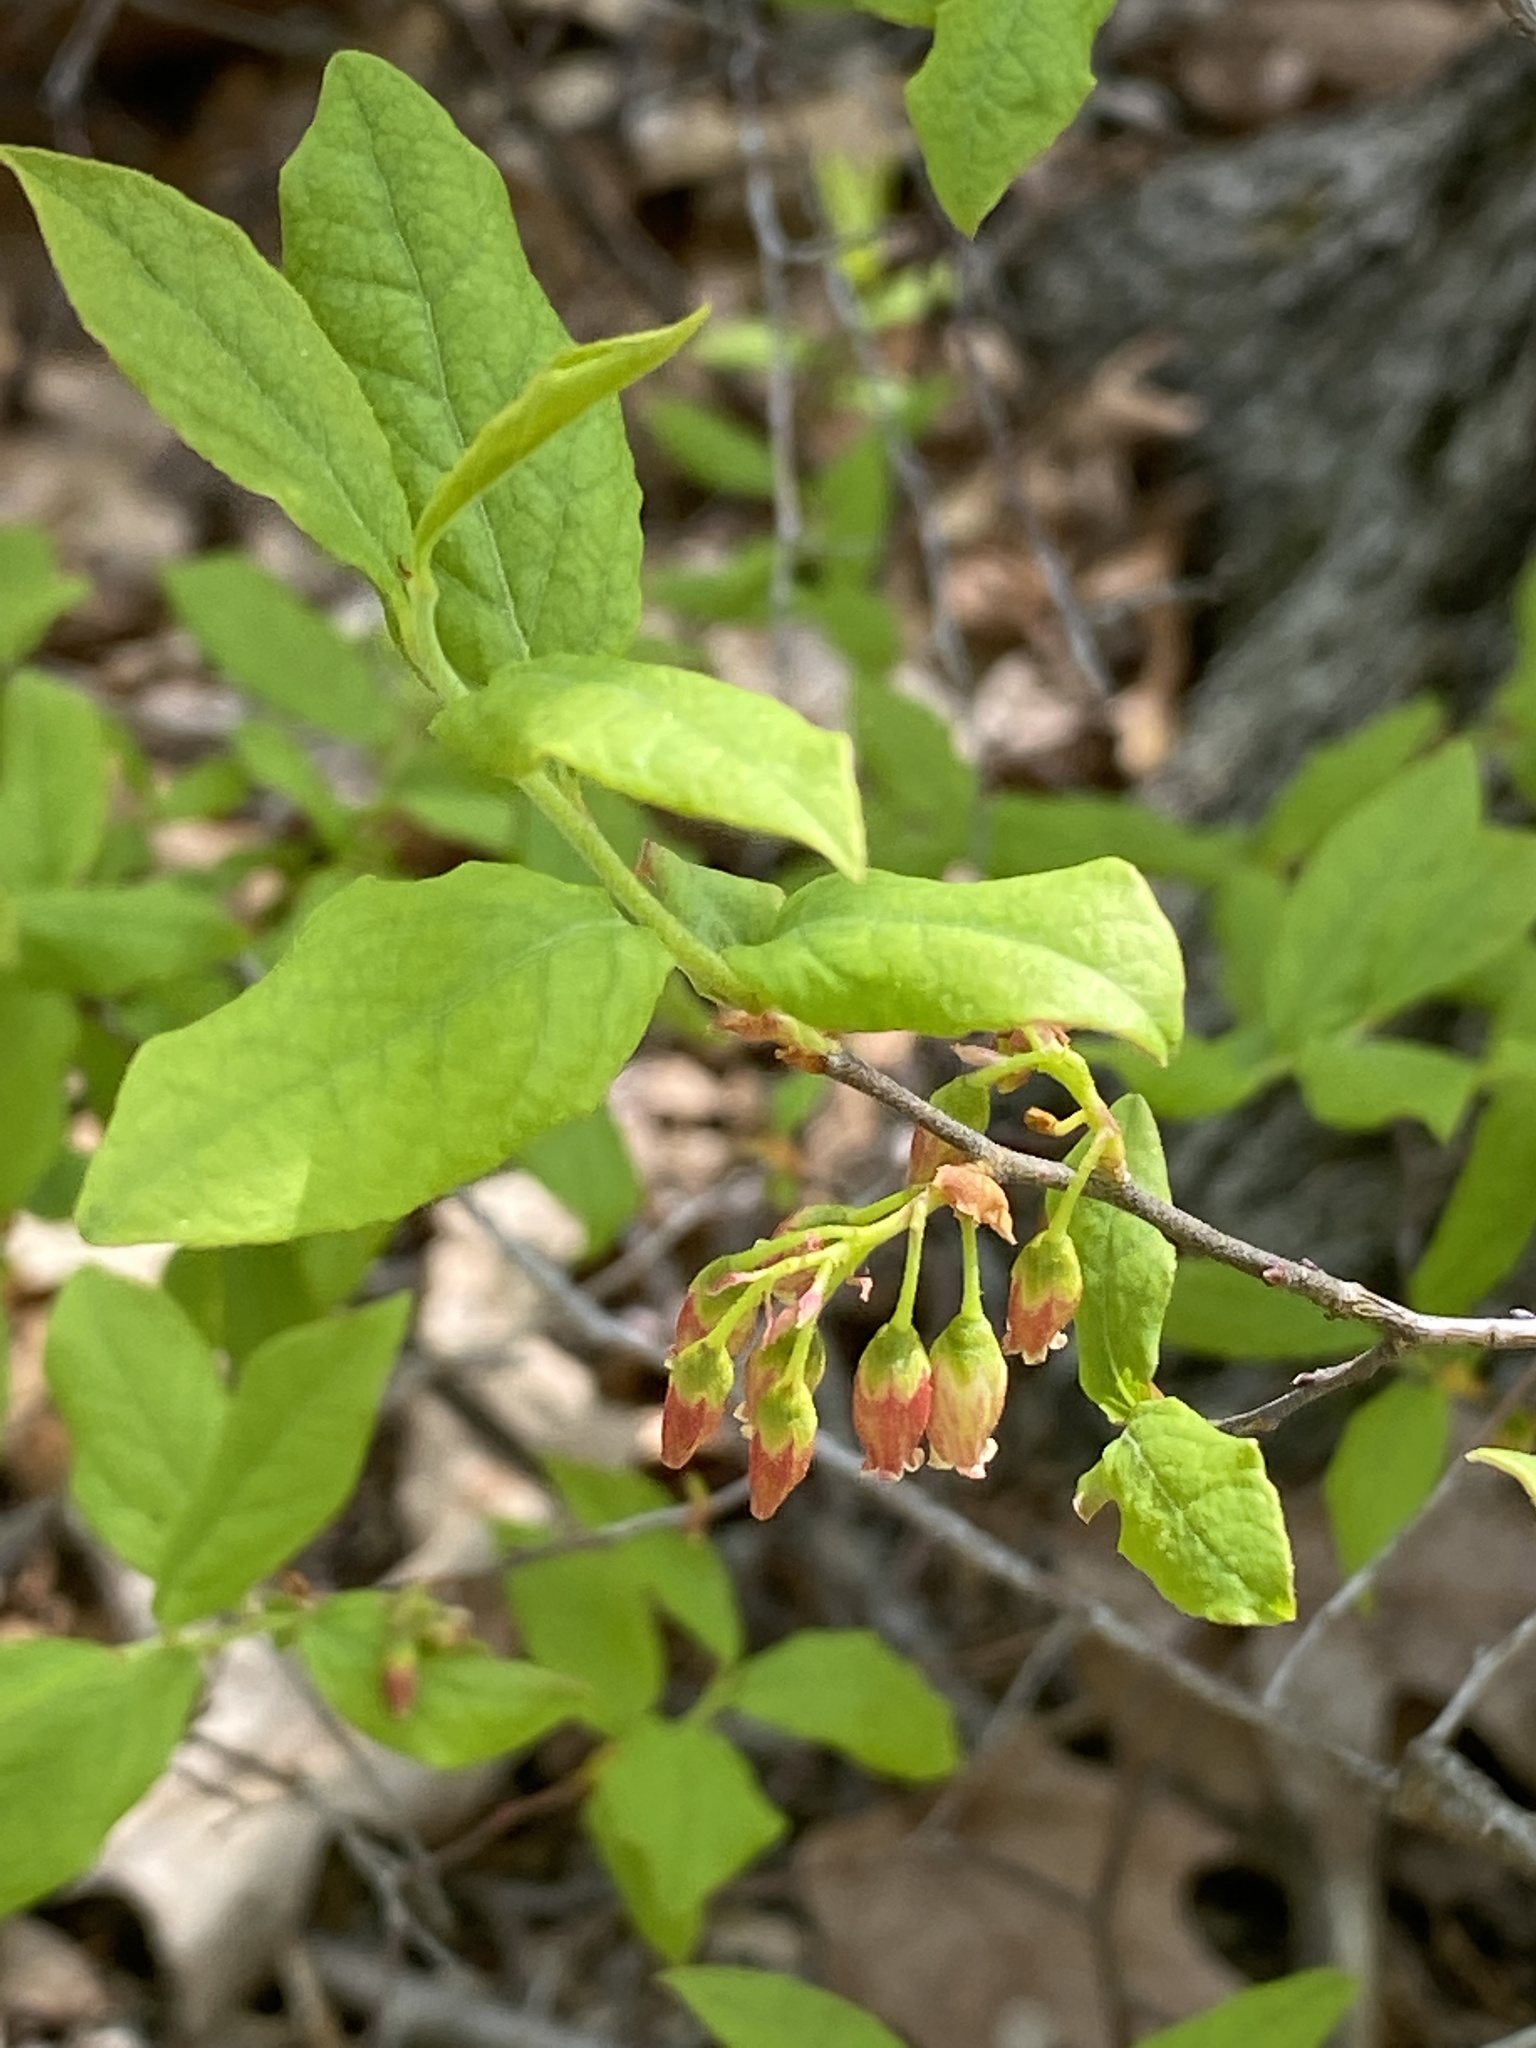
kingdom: Plantae
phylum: Tracheophyta
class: Magnoliopsida
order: Ericales
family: Ericaceae
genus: Gaylussacia
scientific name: Gaylussacia baccata
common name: Black huckleberry
